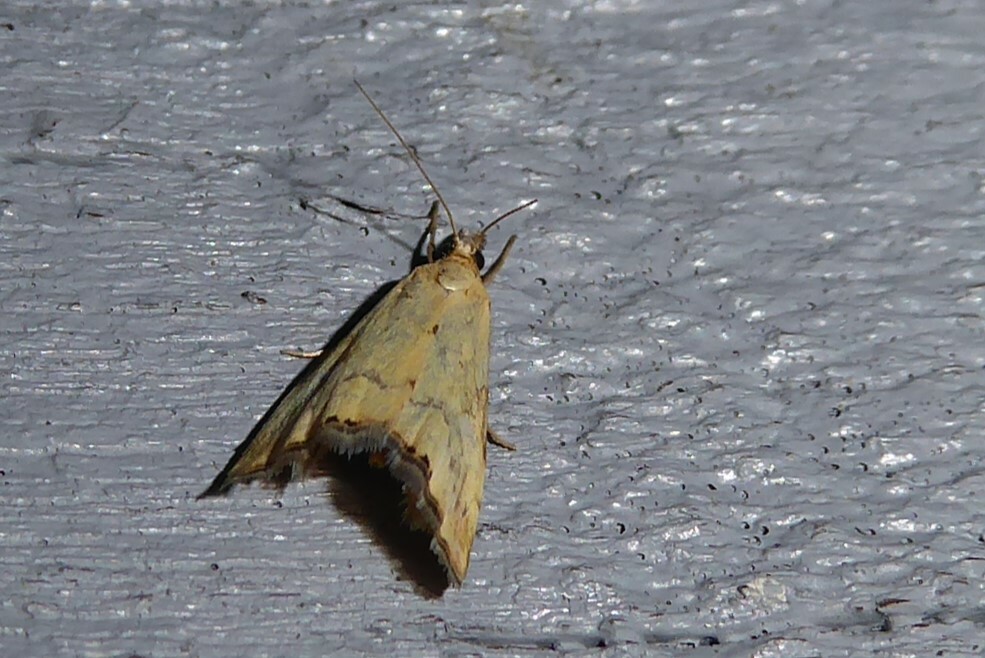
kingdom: Animalia
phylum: Arthropoda
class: Insecta
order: Lepidoptera
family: Crambidae
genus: Glaucocharis
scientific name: Glaucocharis lepidella
